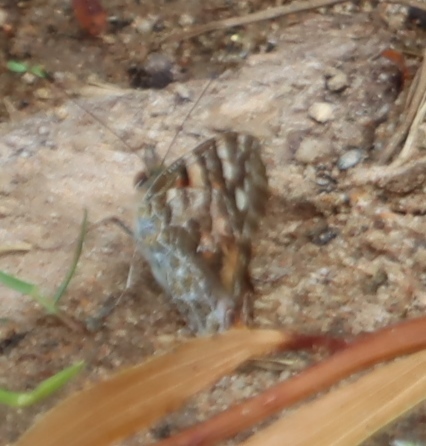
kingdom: Animalia
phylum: Arthropoda
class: Insecta
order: Lepidoptera
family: Nymphalidae
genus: Vanessa
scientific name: Vanessa cardui
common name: Painted lady
